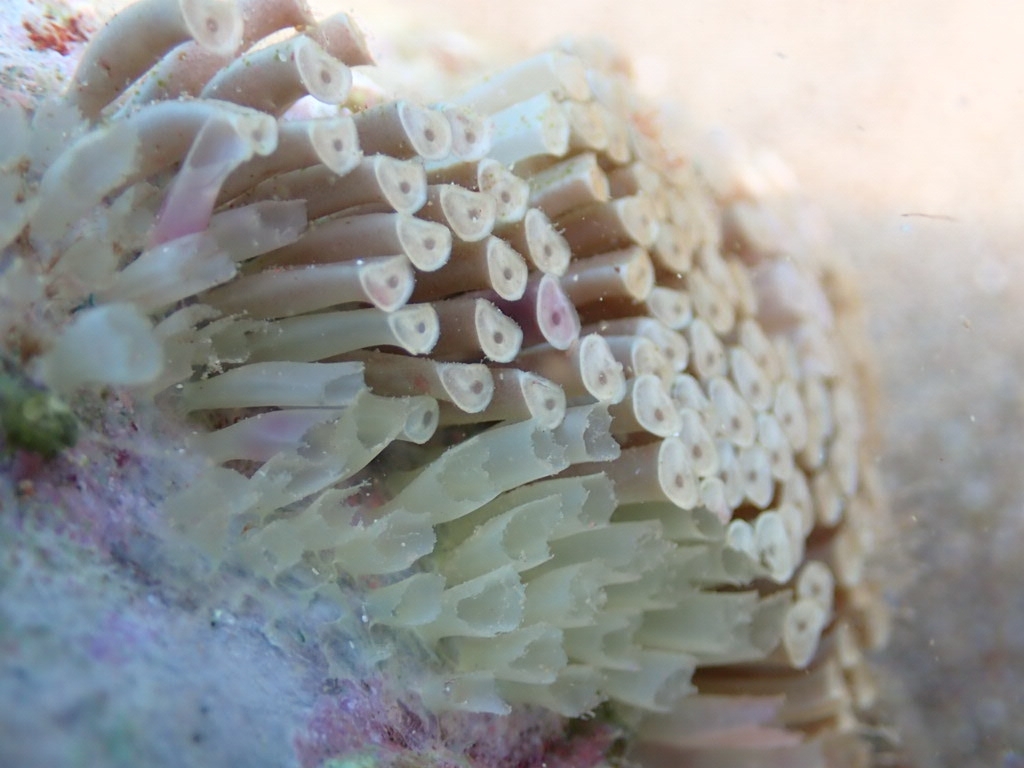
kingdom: Animalia
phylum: Mollusca
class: Gastropoda
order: Neogastropoda
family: Muricidae
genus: Stramonita
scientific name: Stramonita haemastoma
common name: Florida dog winkle
